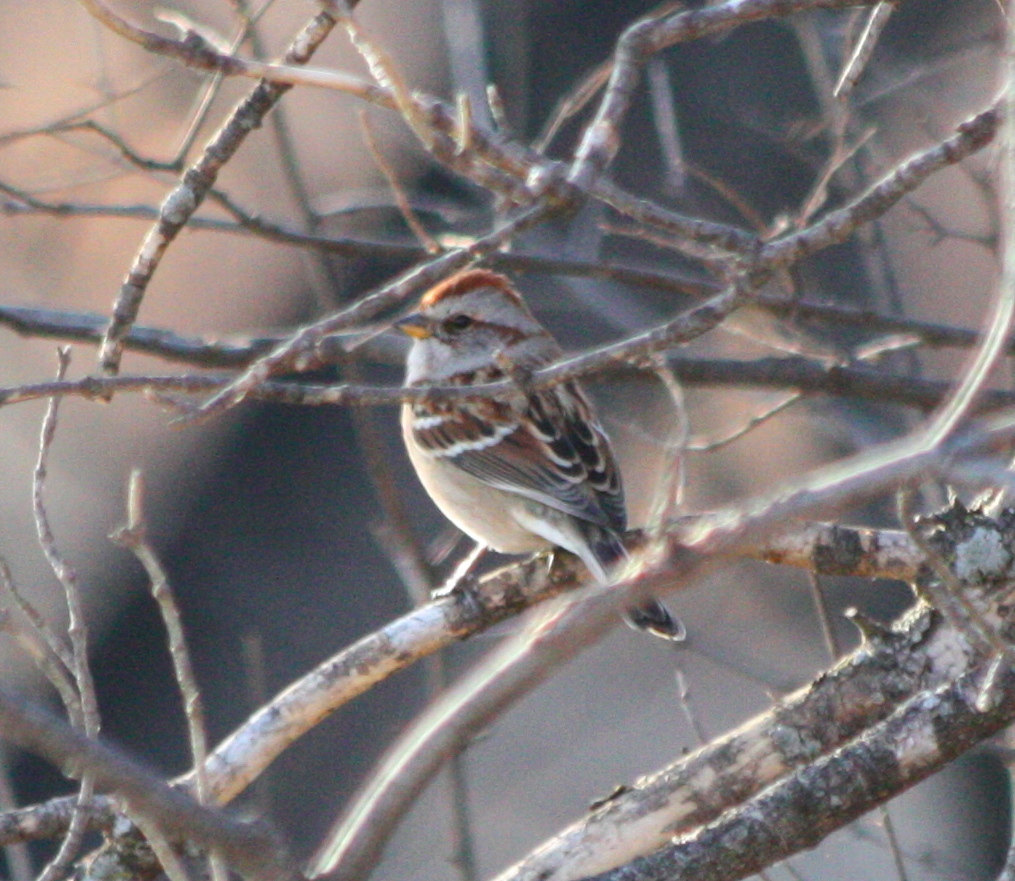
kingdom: Animalia
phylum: Chordata
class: Aves
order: Passeriformes
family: Passerellidae
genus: Spizelloides
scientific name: Spizelloides arborea
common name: American tree sparrow
